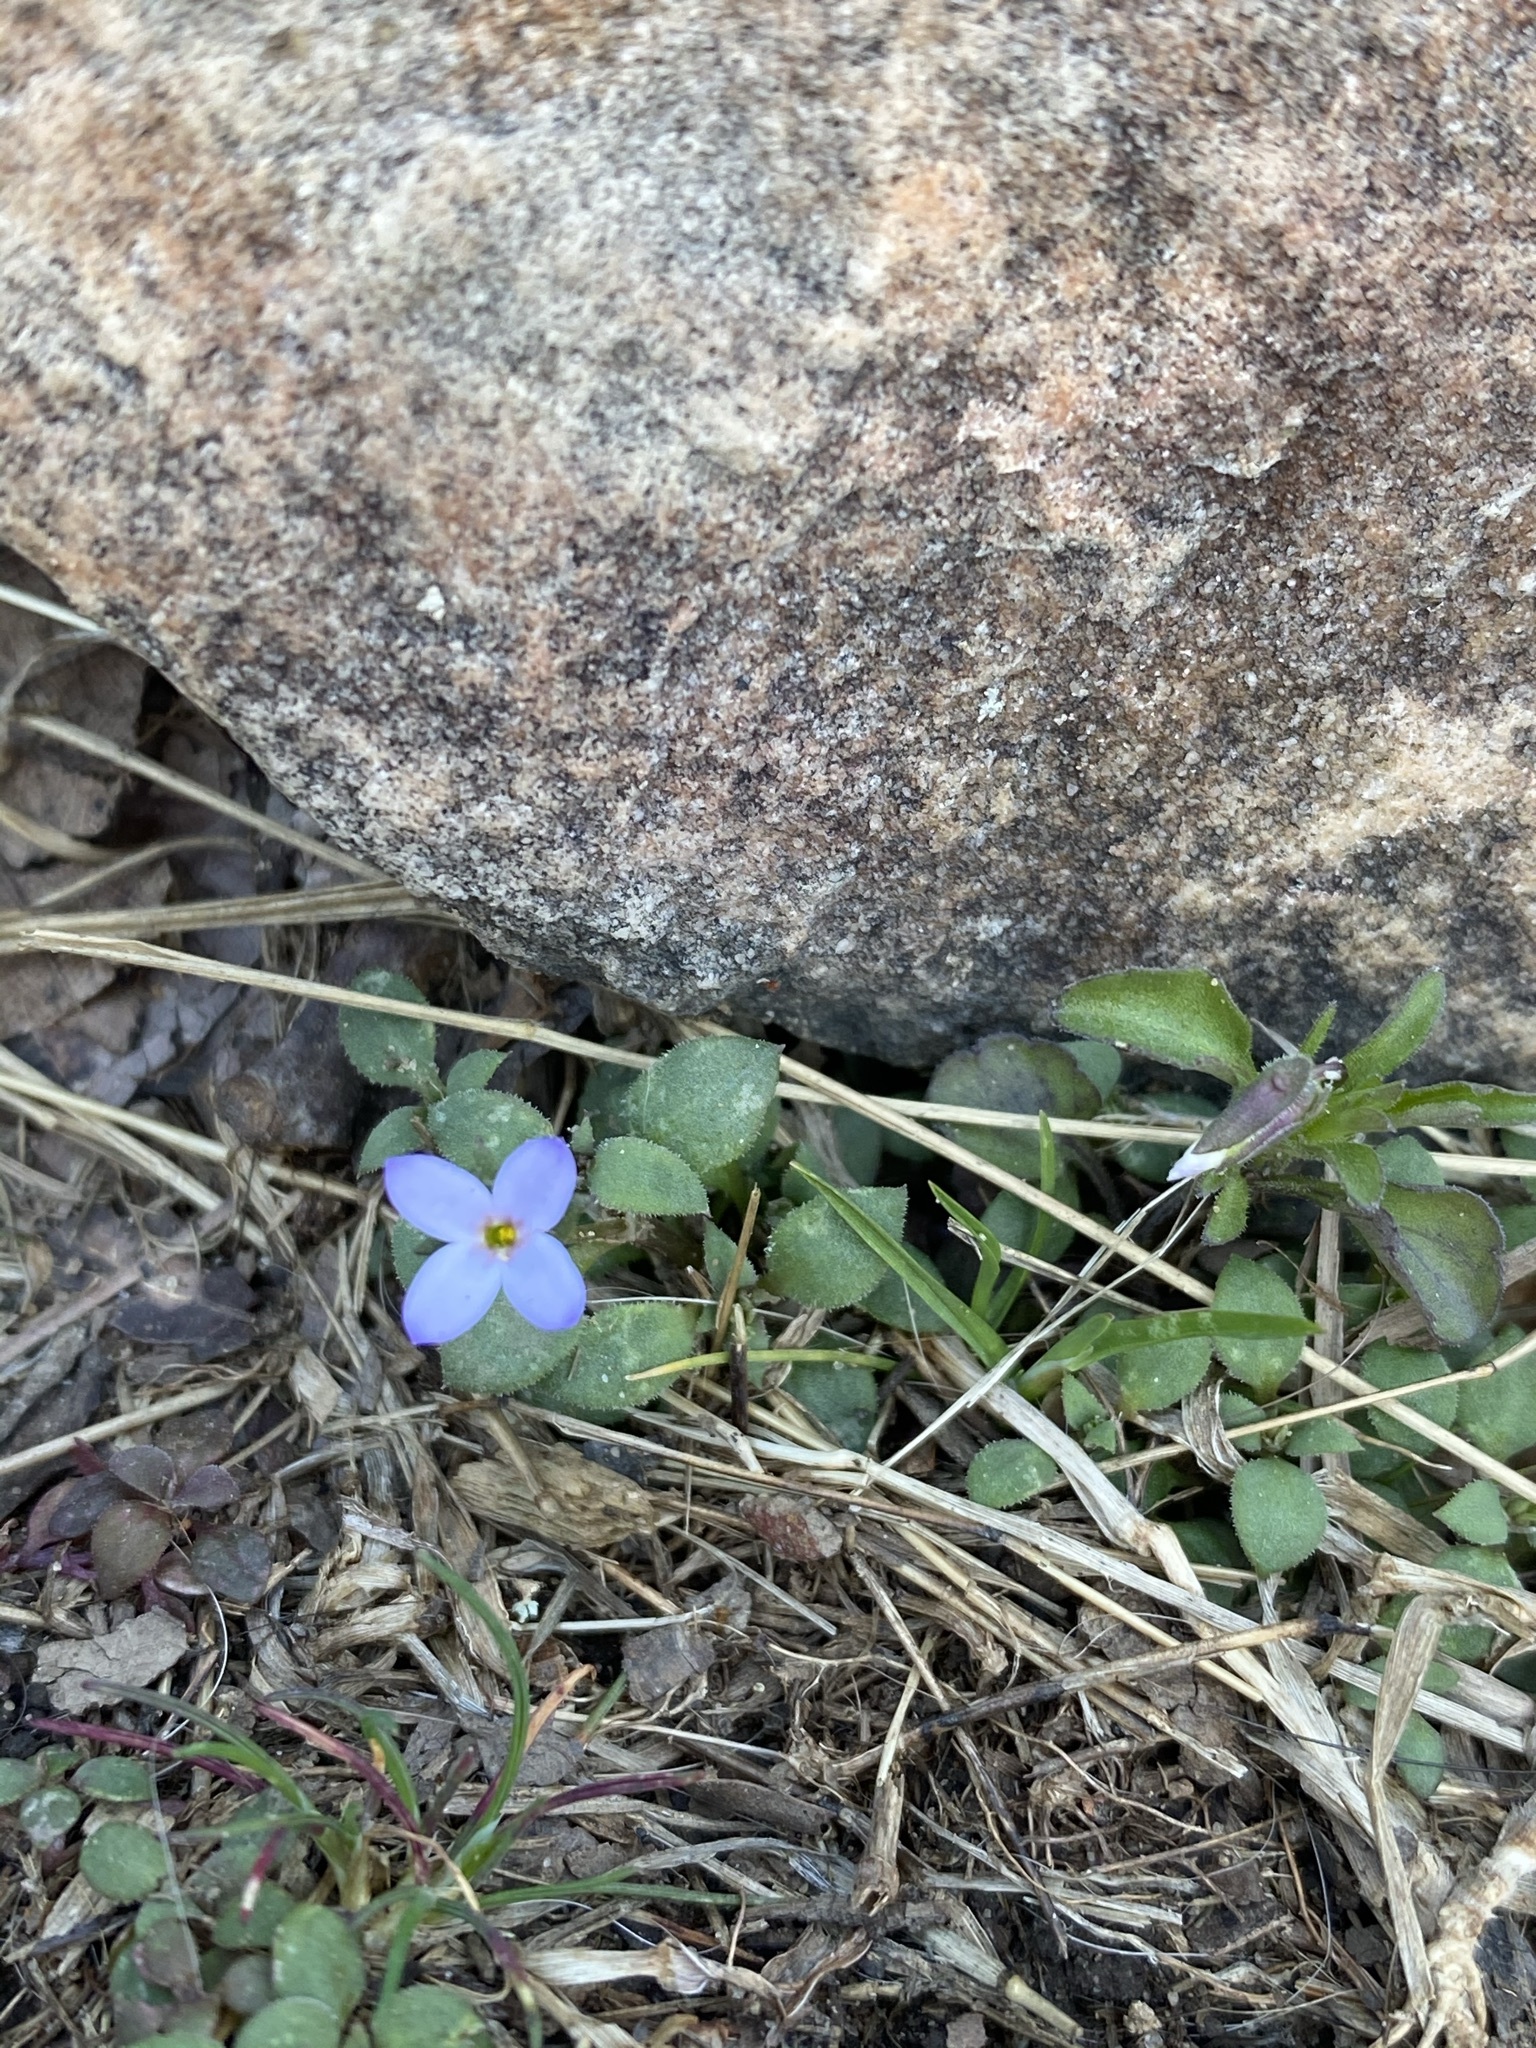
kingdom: Plantae
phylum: Tracheophyta
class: Magnoliopsida
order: Gentianales
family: Rubiaceae
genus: Houstonia
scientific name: Houstonia pusilla
